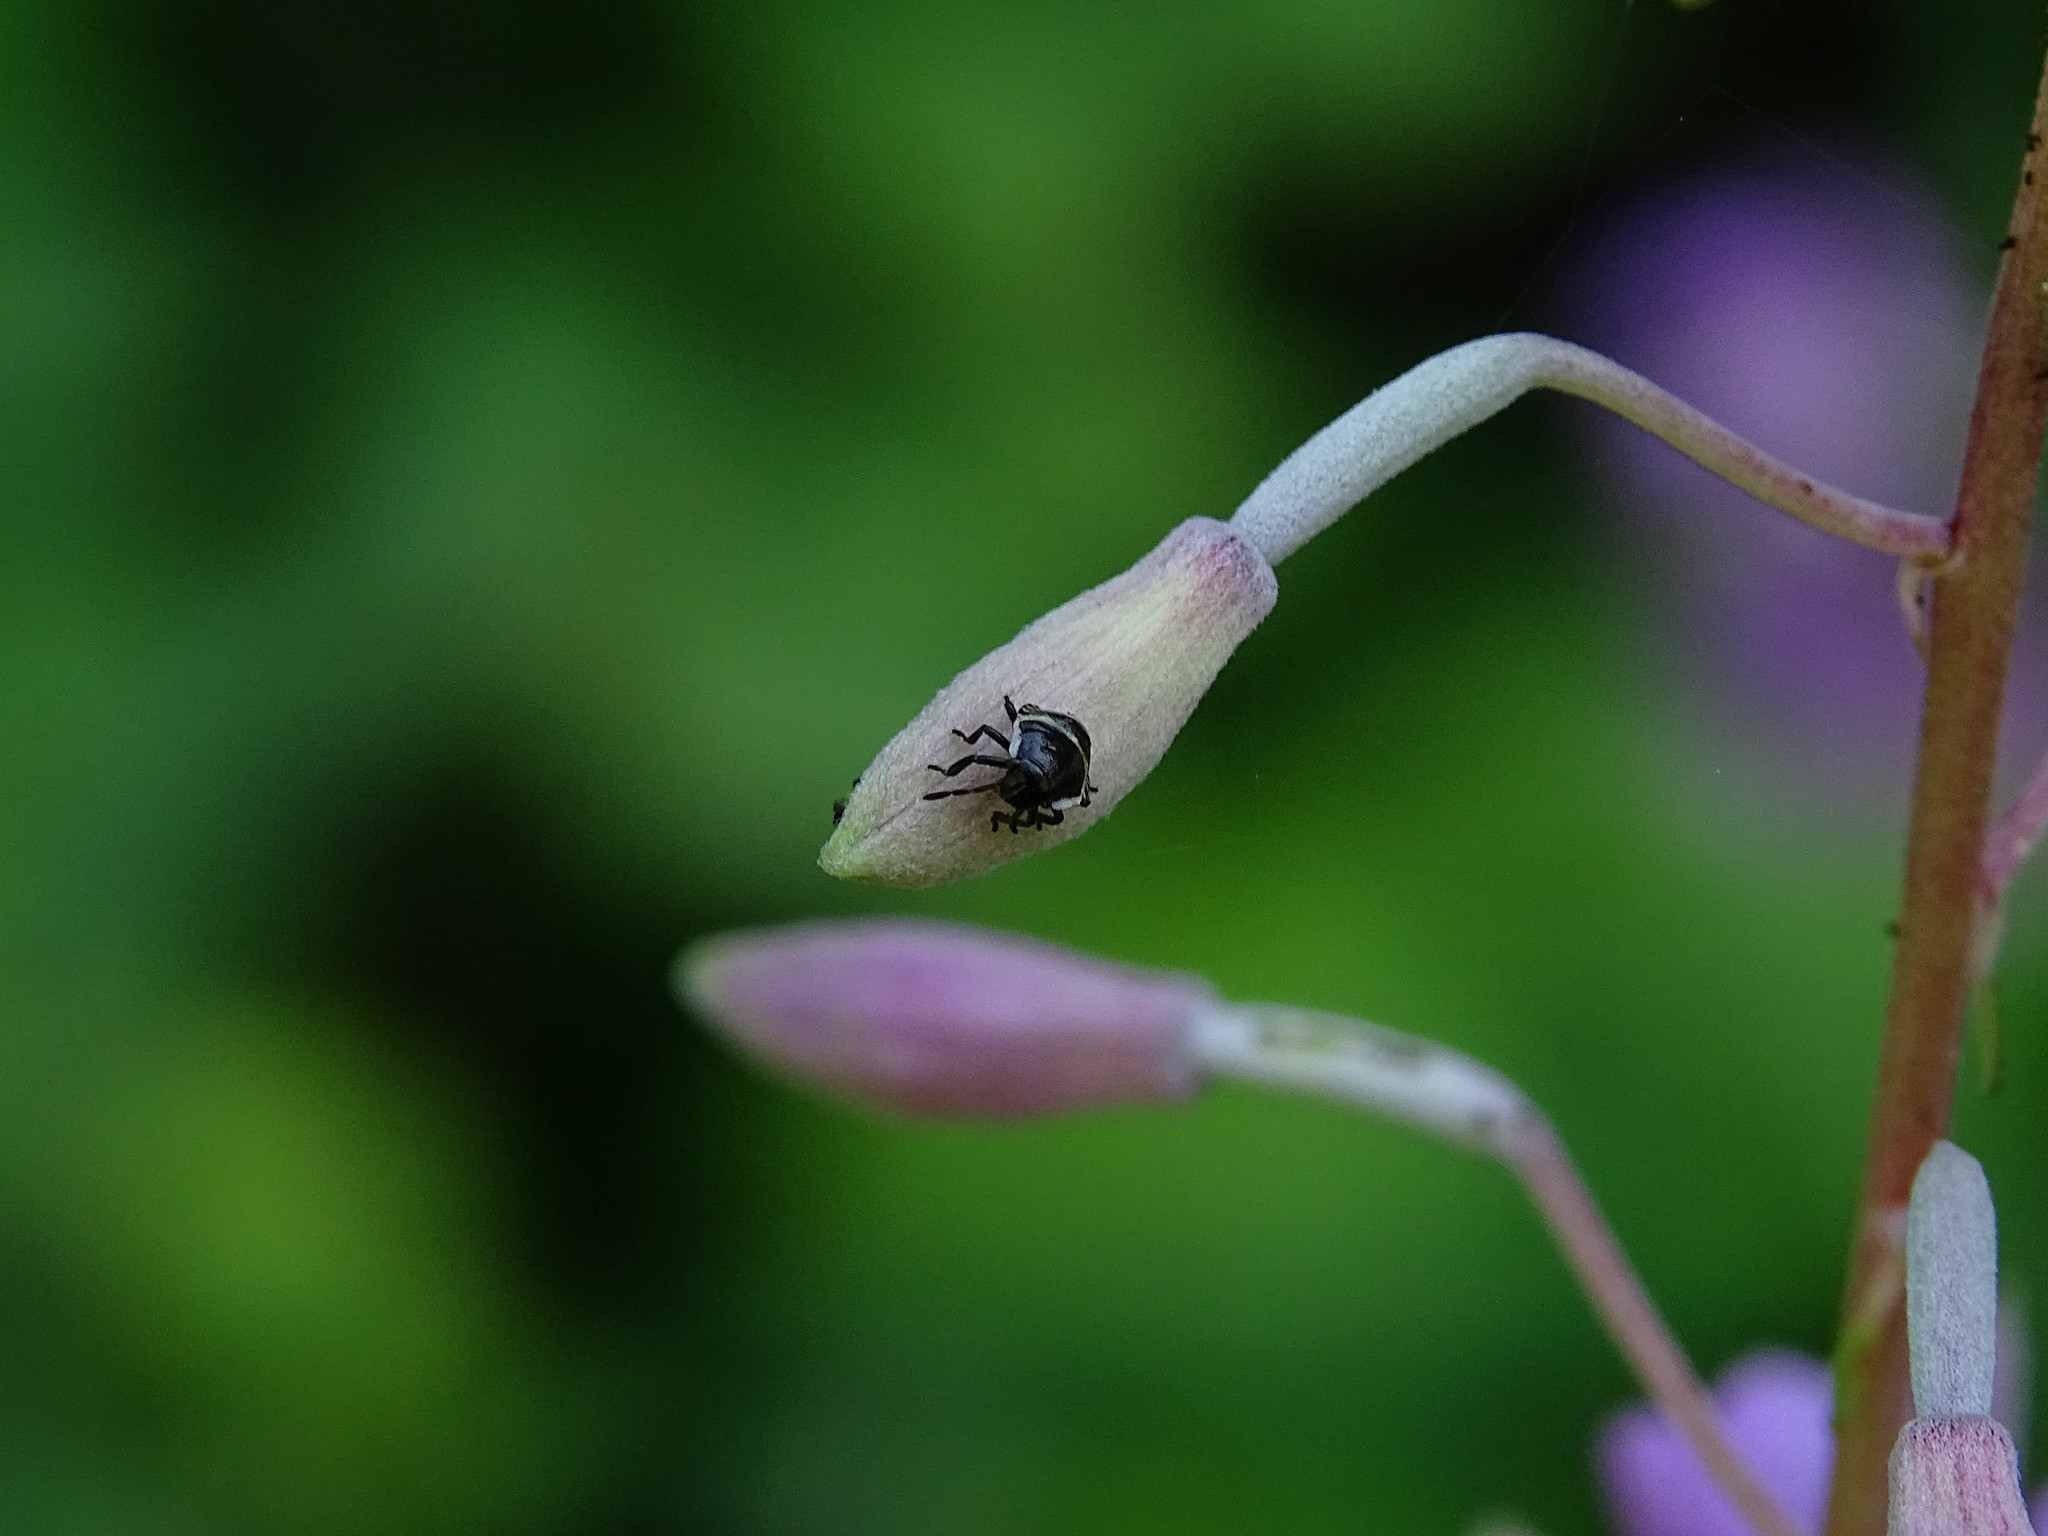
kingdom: Animalia
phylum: Arthropoda
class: Insecta
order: Hemiptera
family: Pentatomidae
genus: Palomena
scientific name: Palomena prasina
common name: Green shieldbug
